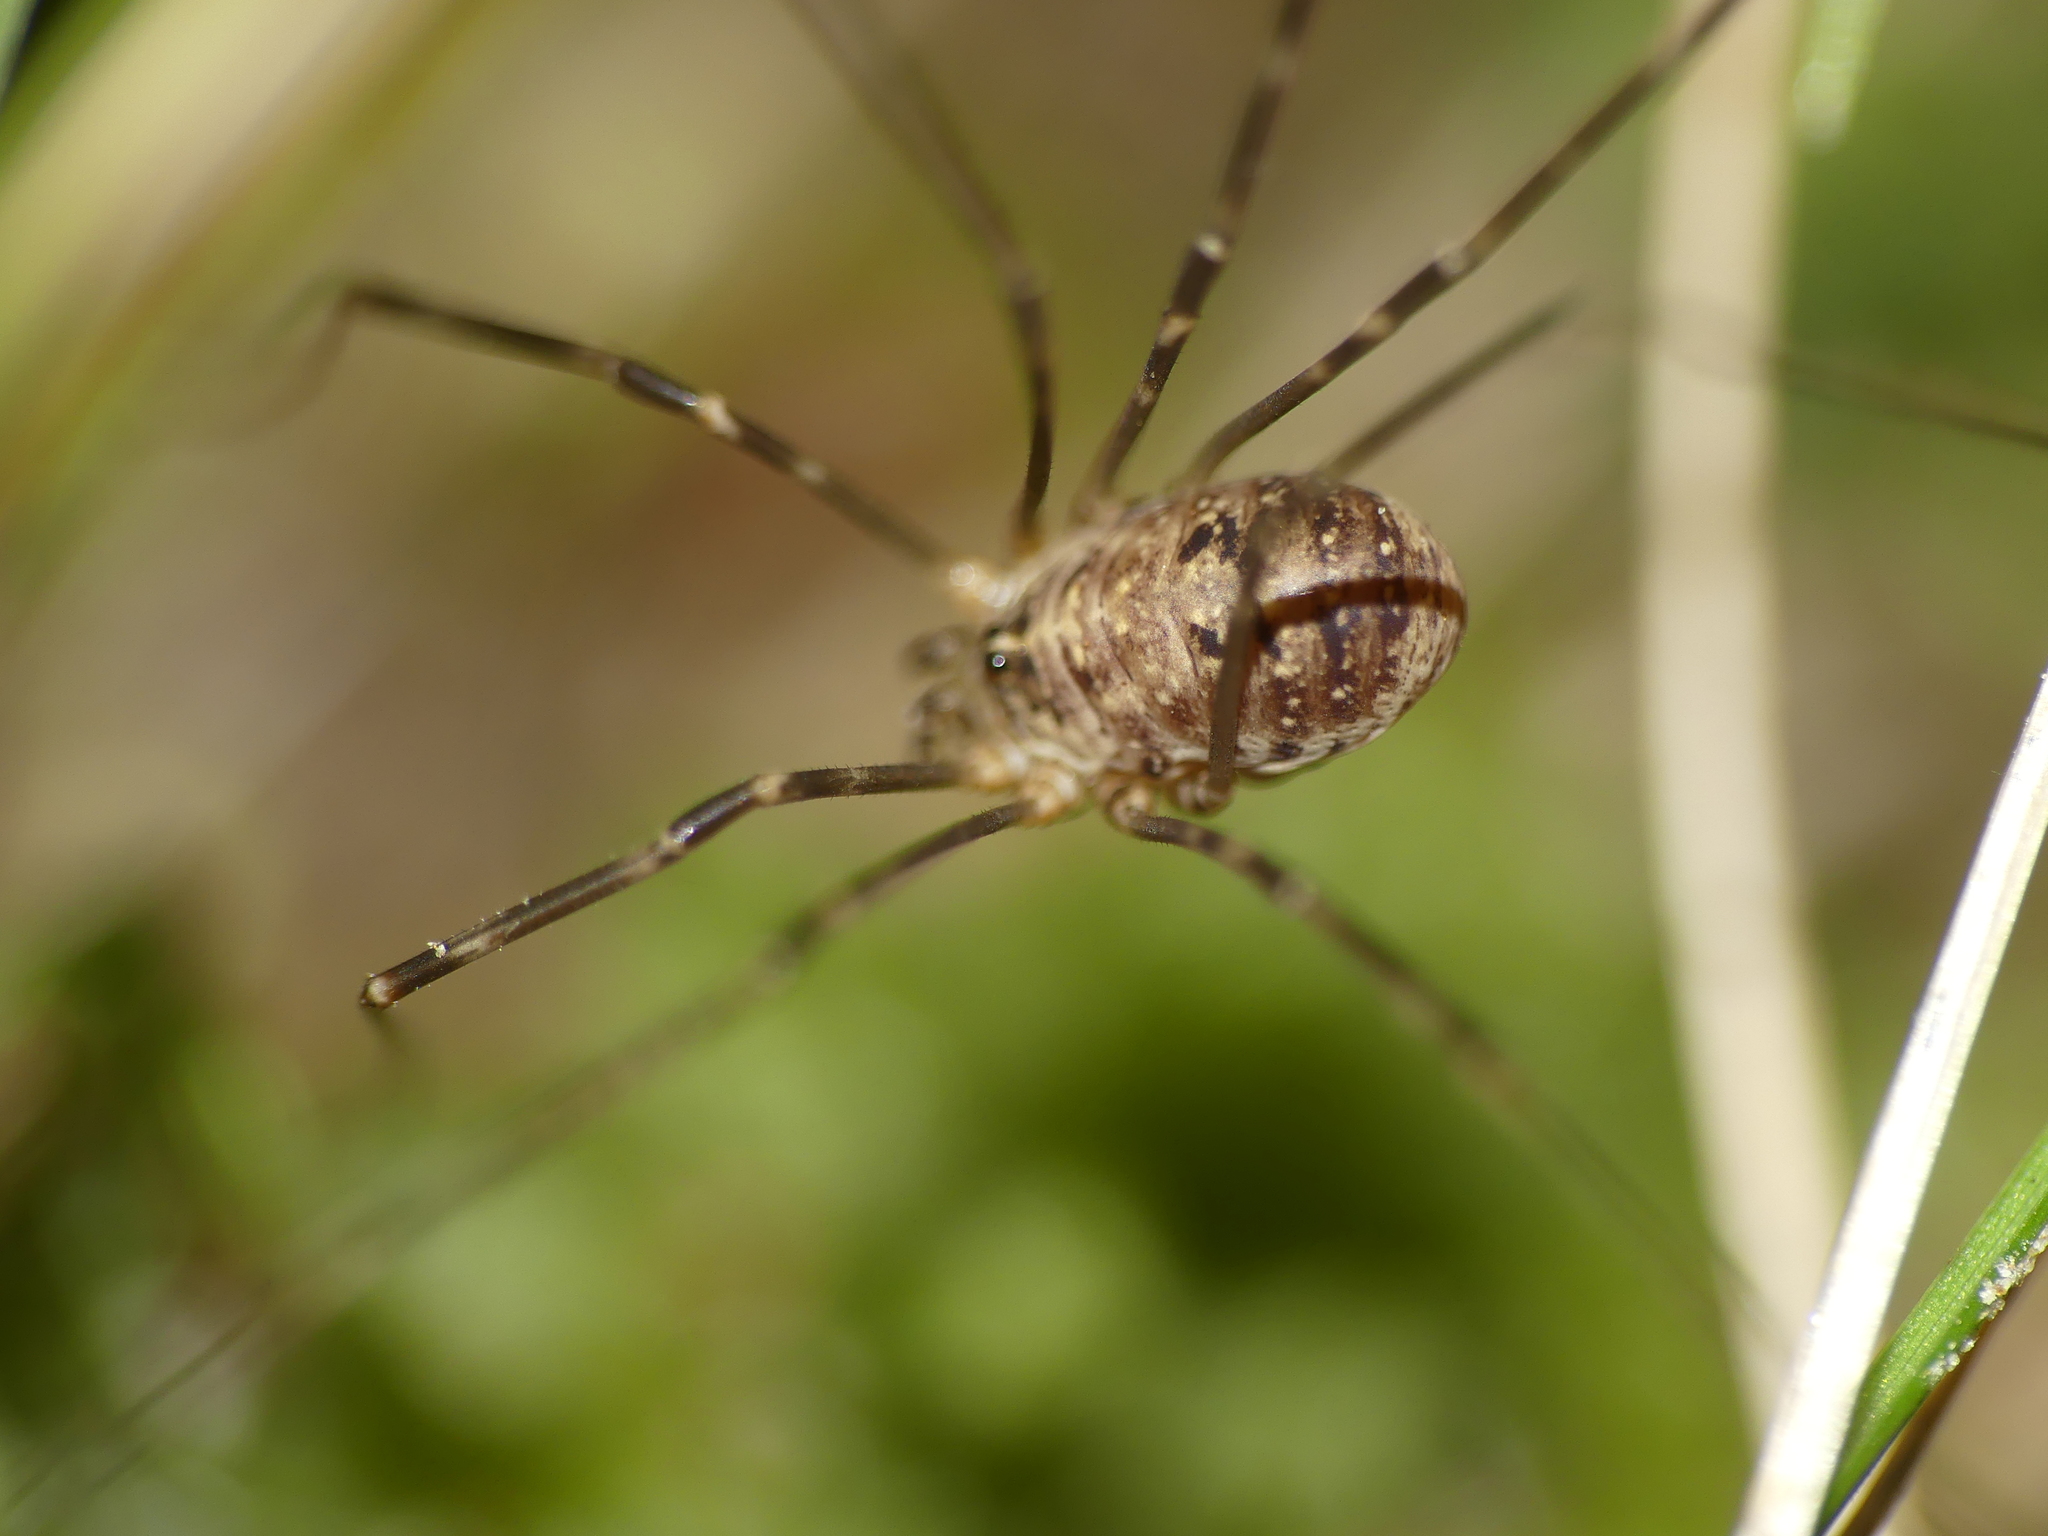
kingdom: Animalia
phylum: Arthropoda
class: Arachnida
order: Opiliones
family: Phalangiidae
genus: Amilenus
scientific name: Amilenus aurantiacus
